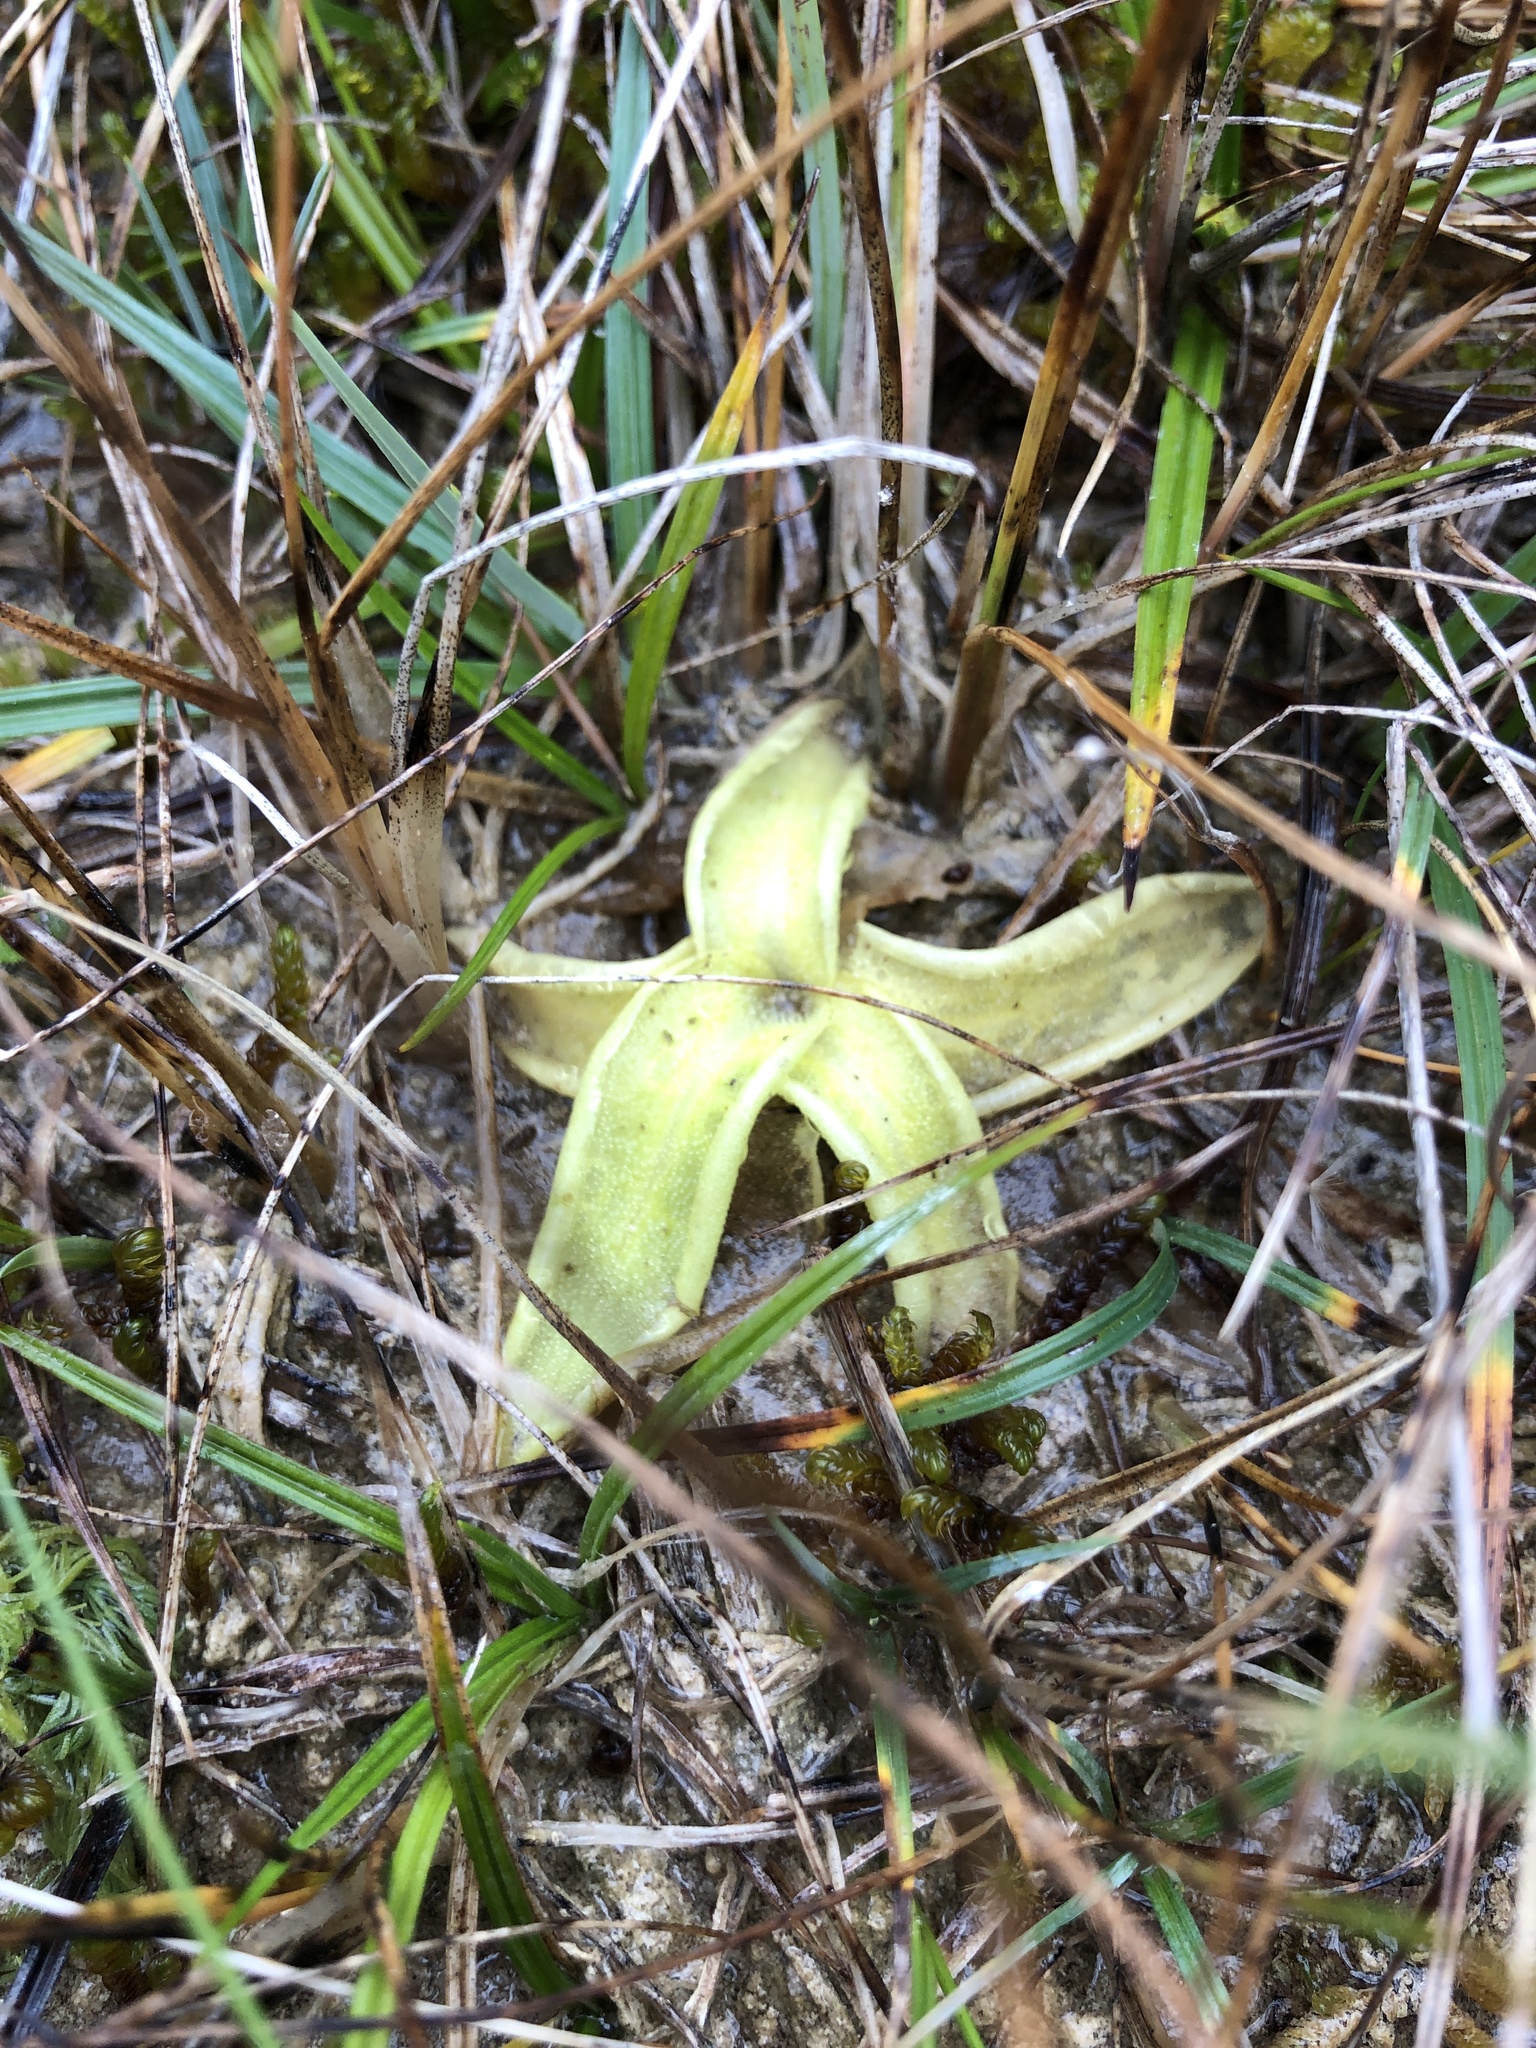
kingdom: Plantae
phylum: Tracheophyta
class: Magnoliopsida
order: Lamiales
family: Lentibulariaceae
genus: Pinguicula
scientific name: Pinguicula vulgaris
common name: Common butterwort
